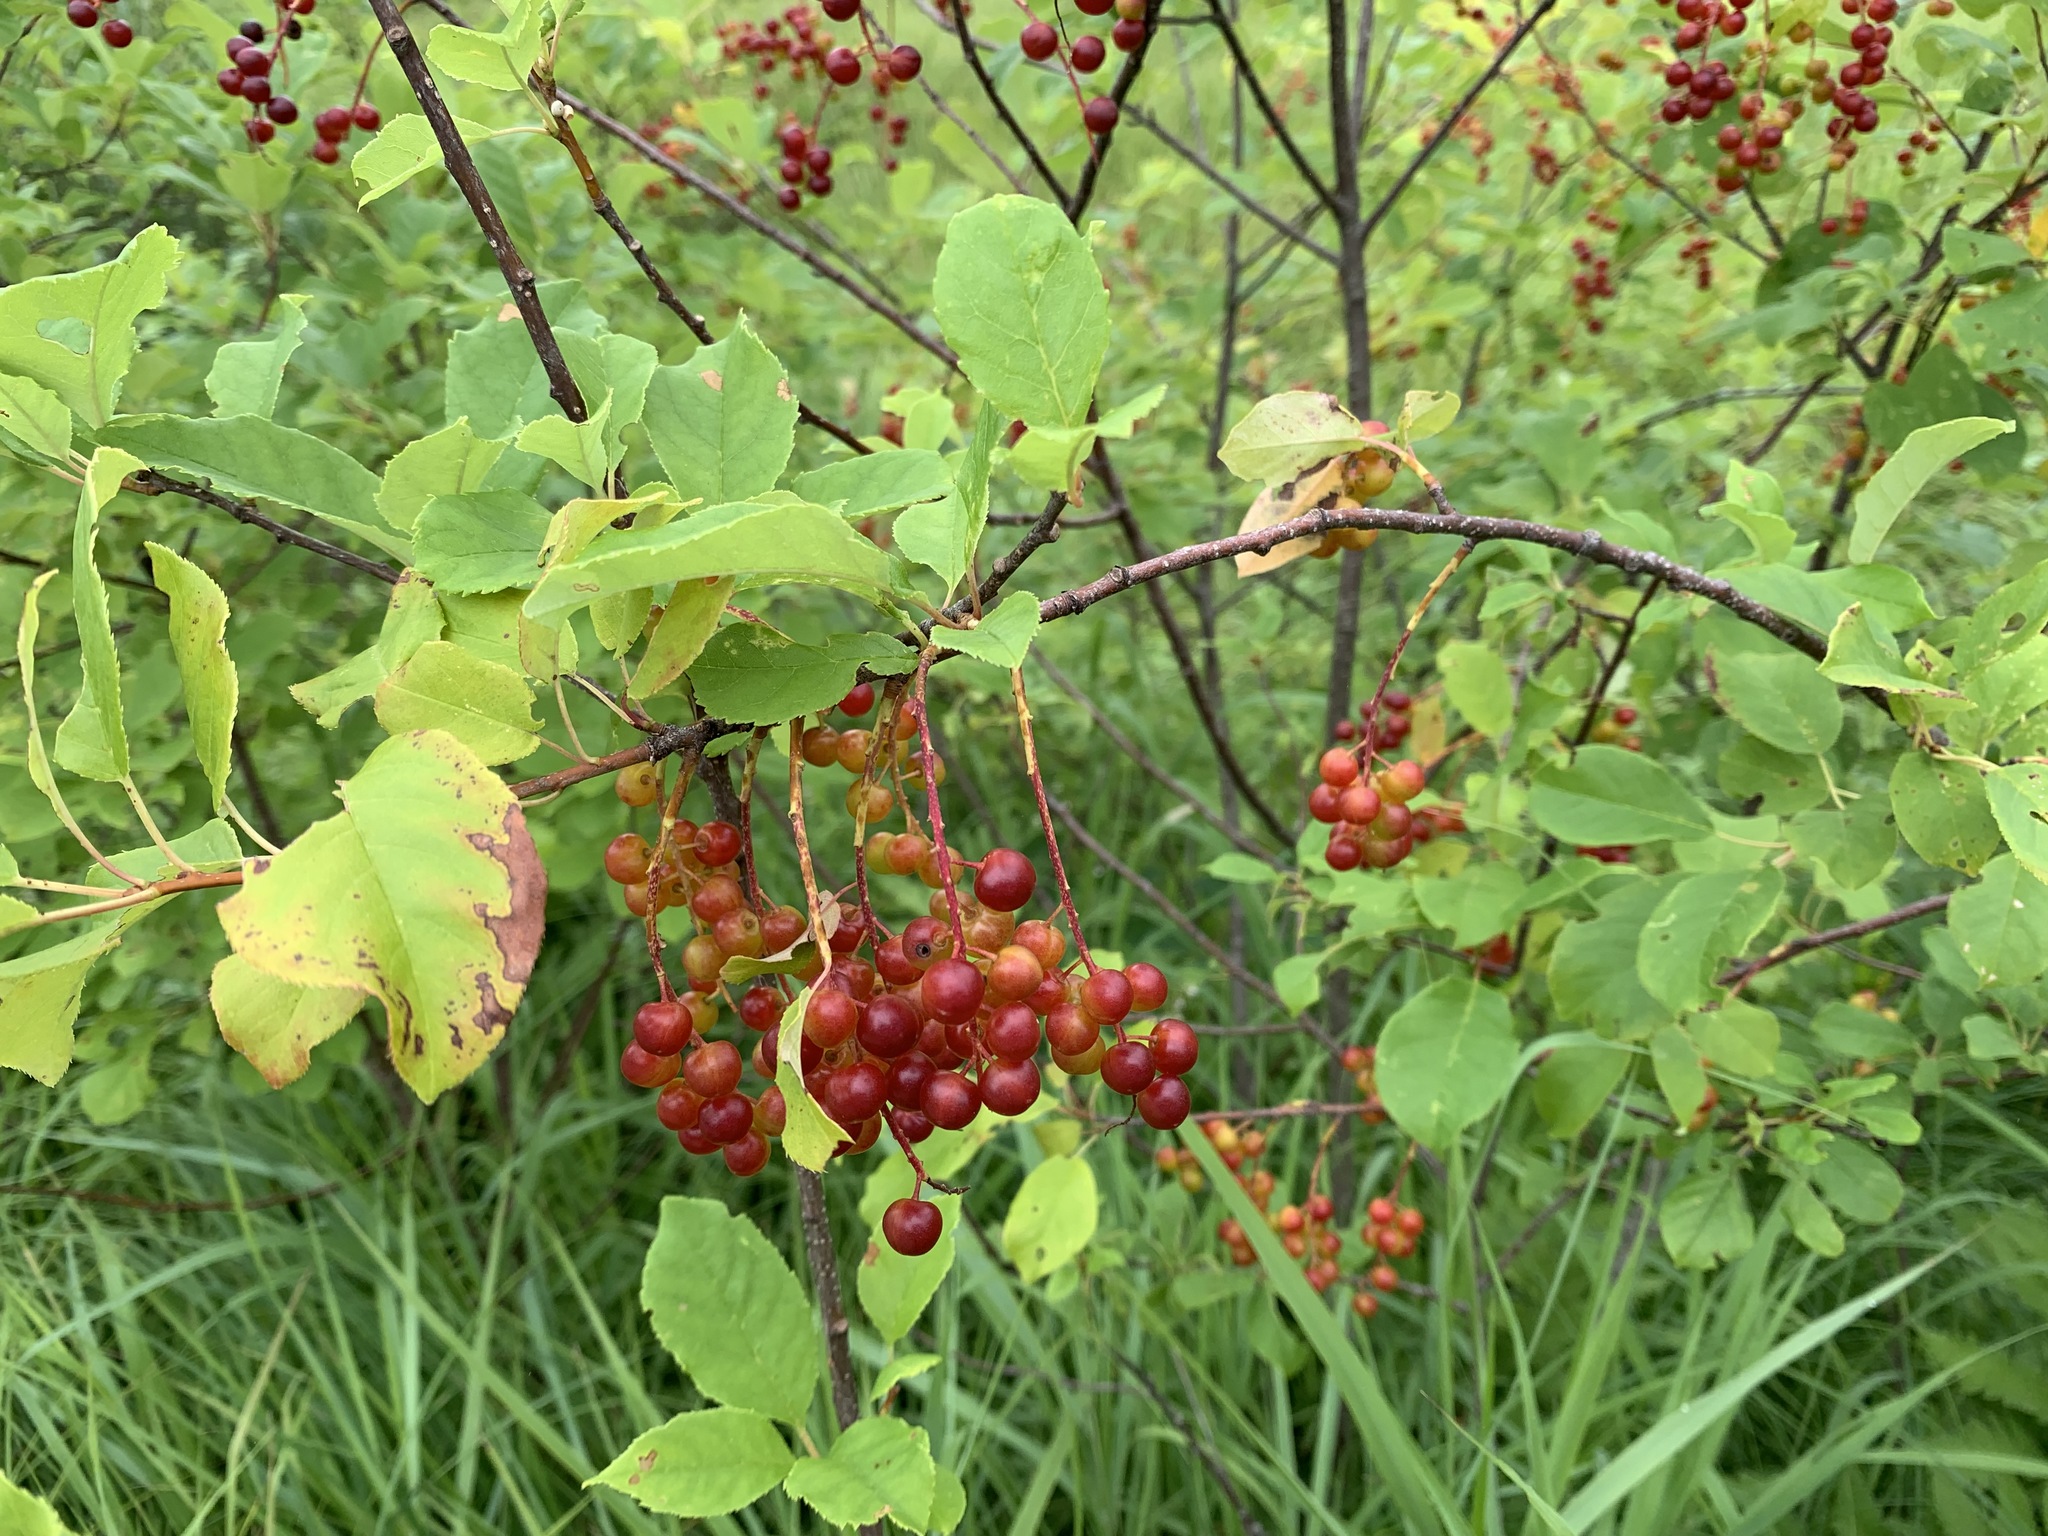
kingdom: Plantae
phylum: Tracheophyta
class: Magnoliopsida
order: Rosales
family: Rosaceae
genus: Prunus
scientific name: Prunus virginiana
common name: Chokecherry
